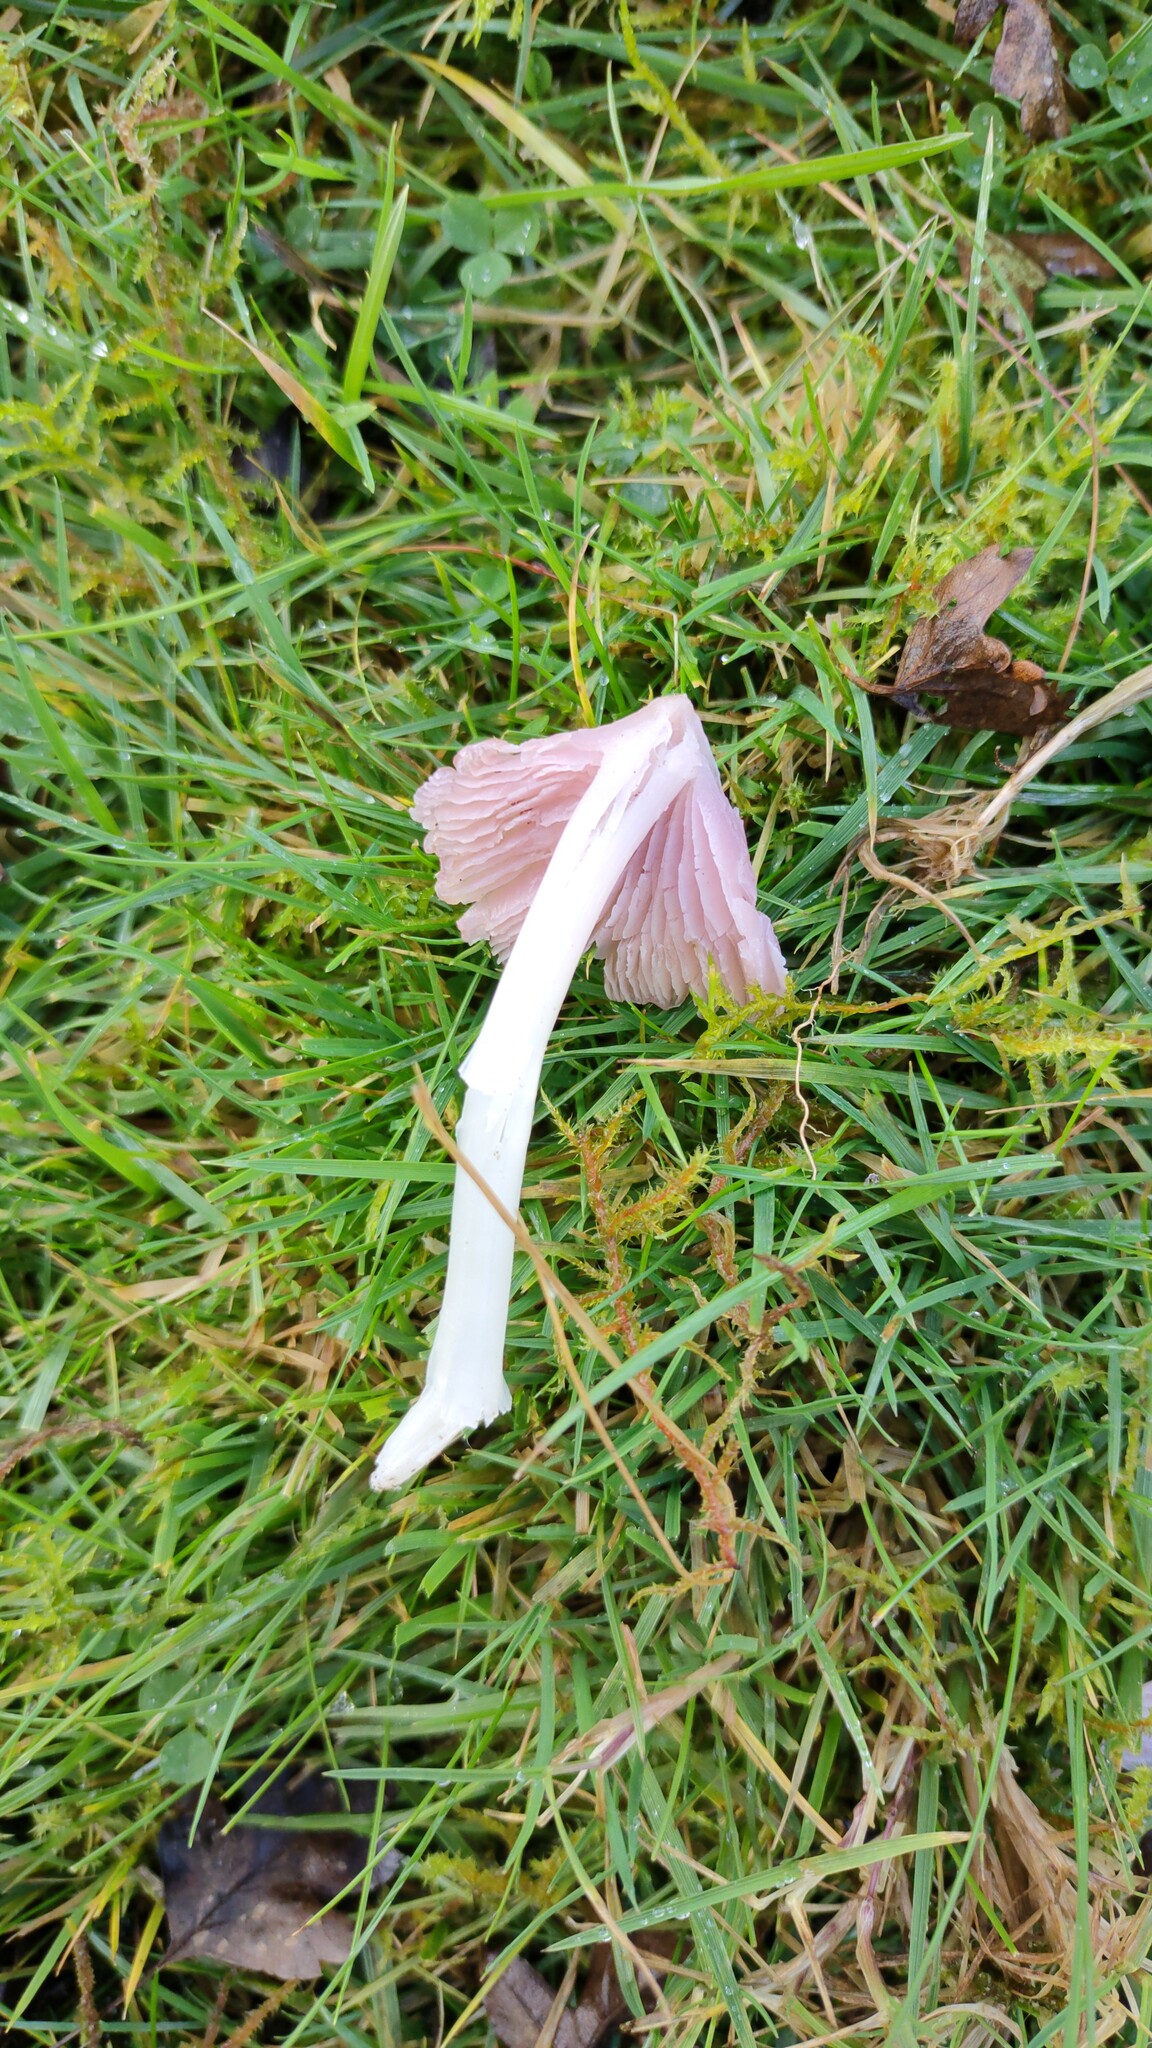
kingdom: Fungi
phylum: Basidiomycota
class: Agaricomycetes
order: Agaricales
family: Hygrophoraceae
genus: Porpolomopsis
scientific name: Porpolomopsis calyptriformis
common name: Pink waxcap
